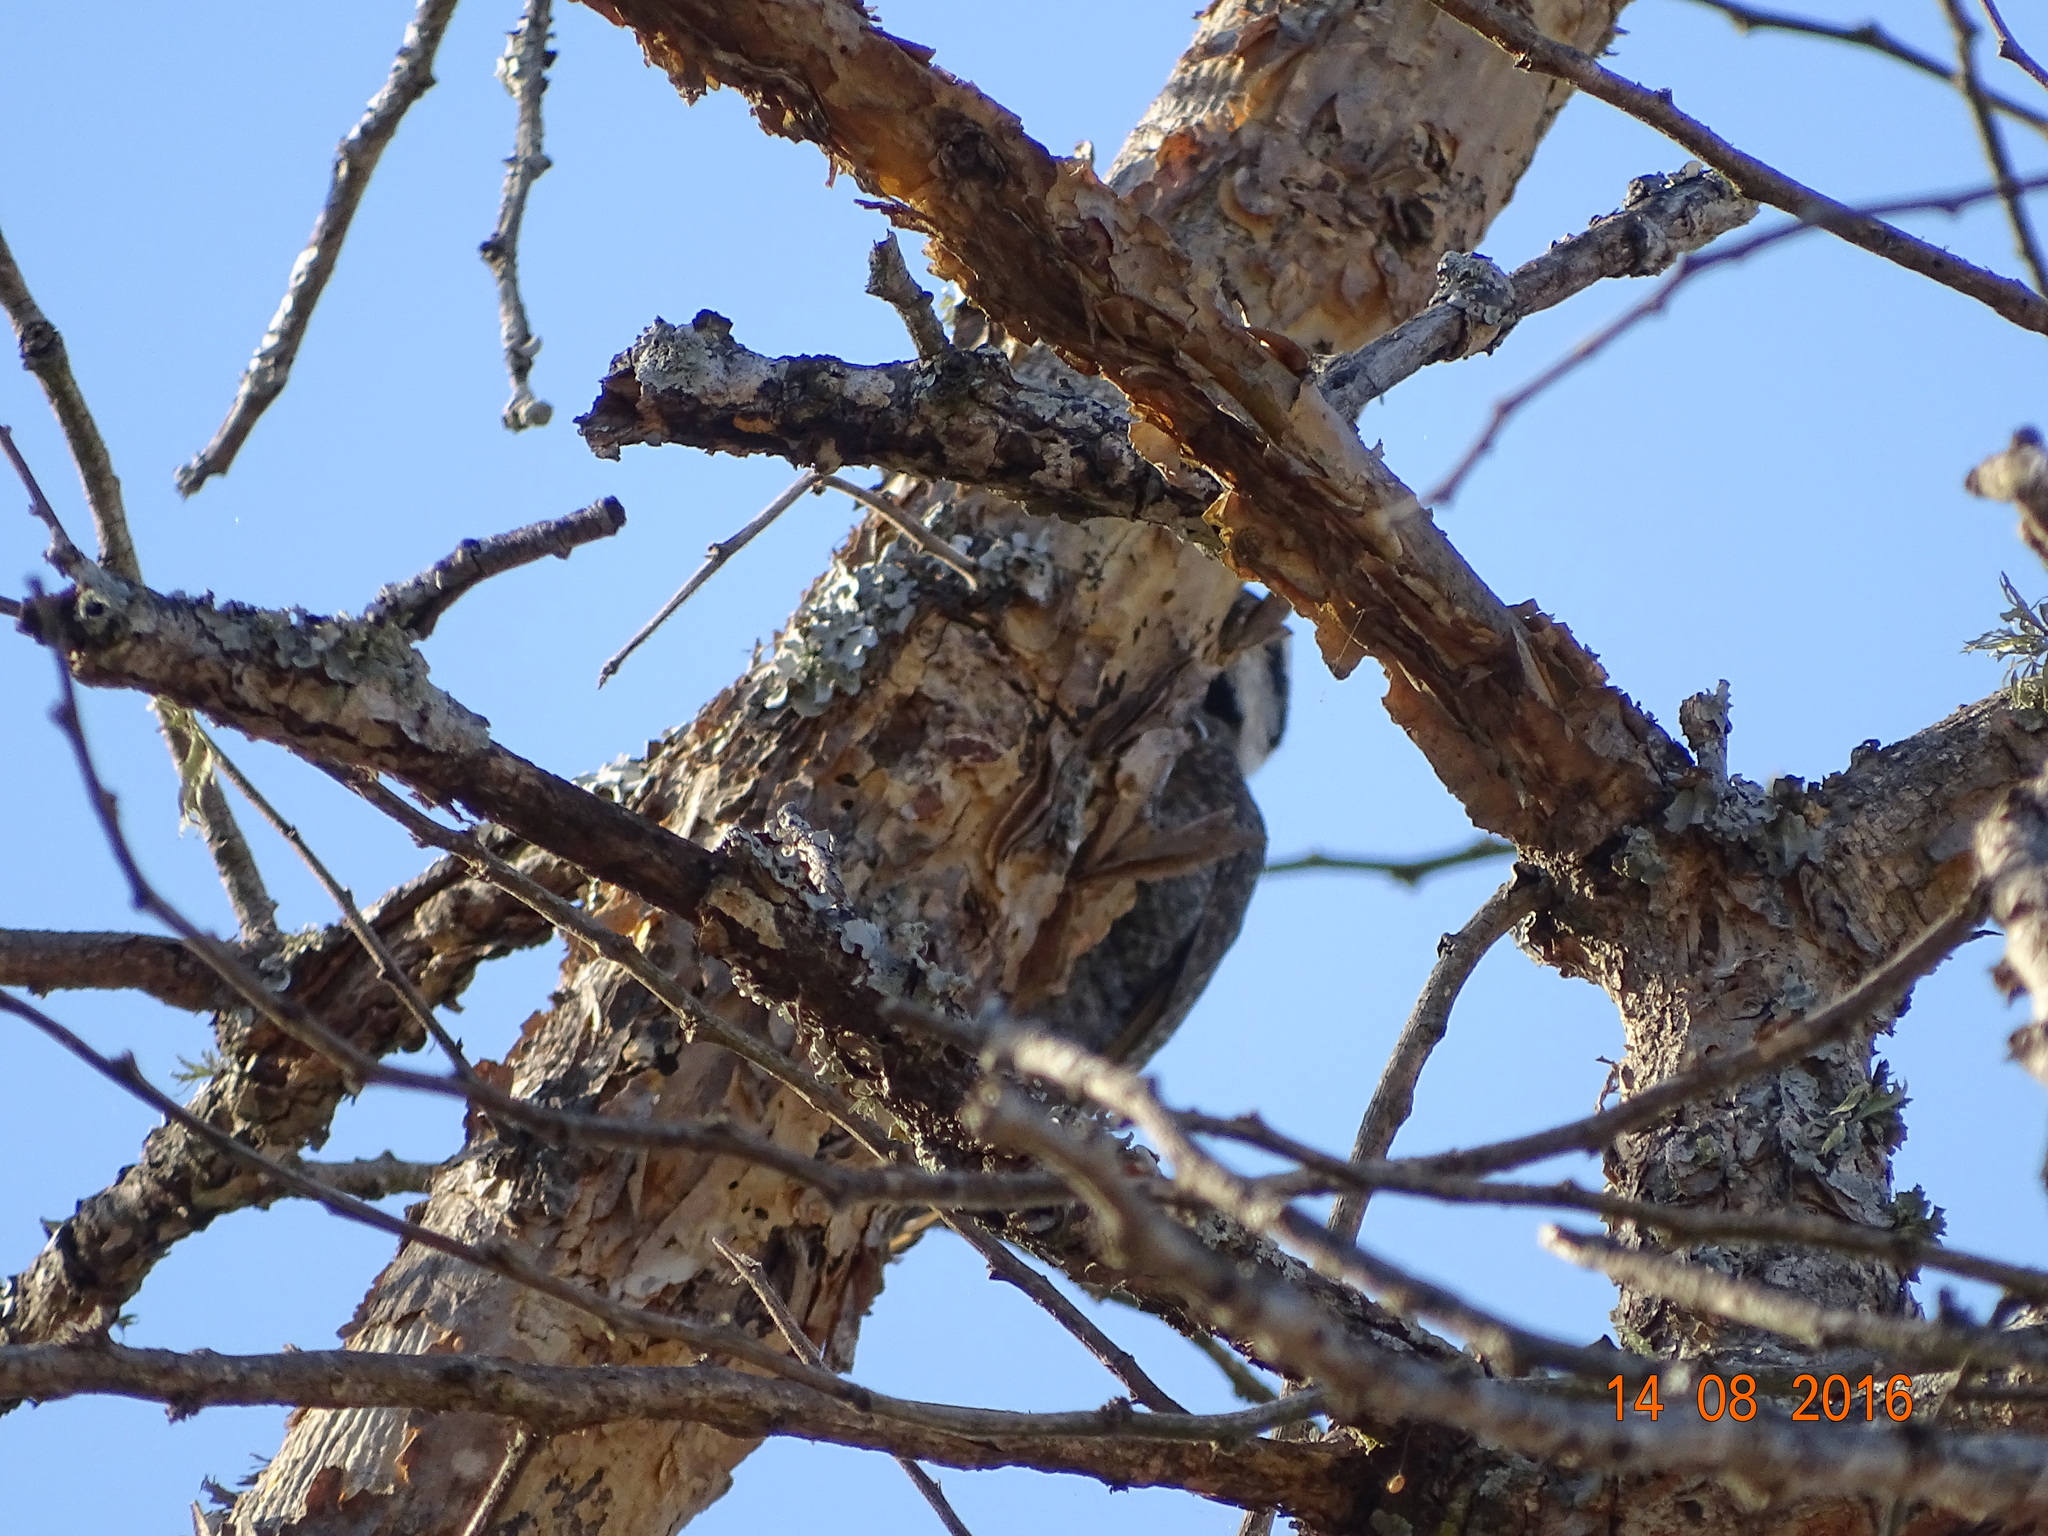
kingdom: Animalia
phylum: Chordata
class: Aves
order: Piciformes
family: Picidae
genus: Chloropicus
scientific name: Chloropicus namaquus
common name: Bearded woodpecker
